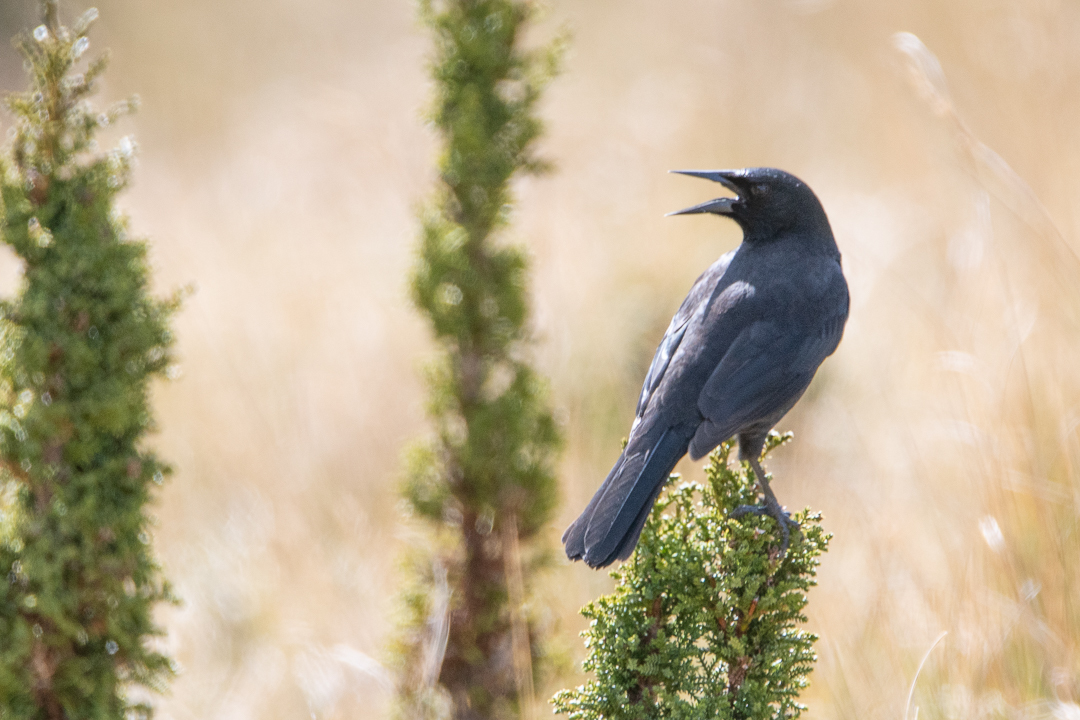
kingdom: Animalia
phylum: Chordata
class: Aves
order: Passeriformes
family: Icteridae
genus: Curaeus
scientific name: Curaeus curaeus
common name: Austral blackbird
